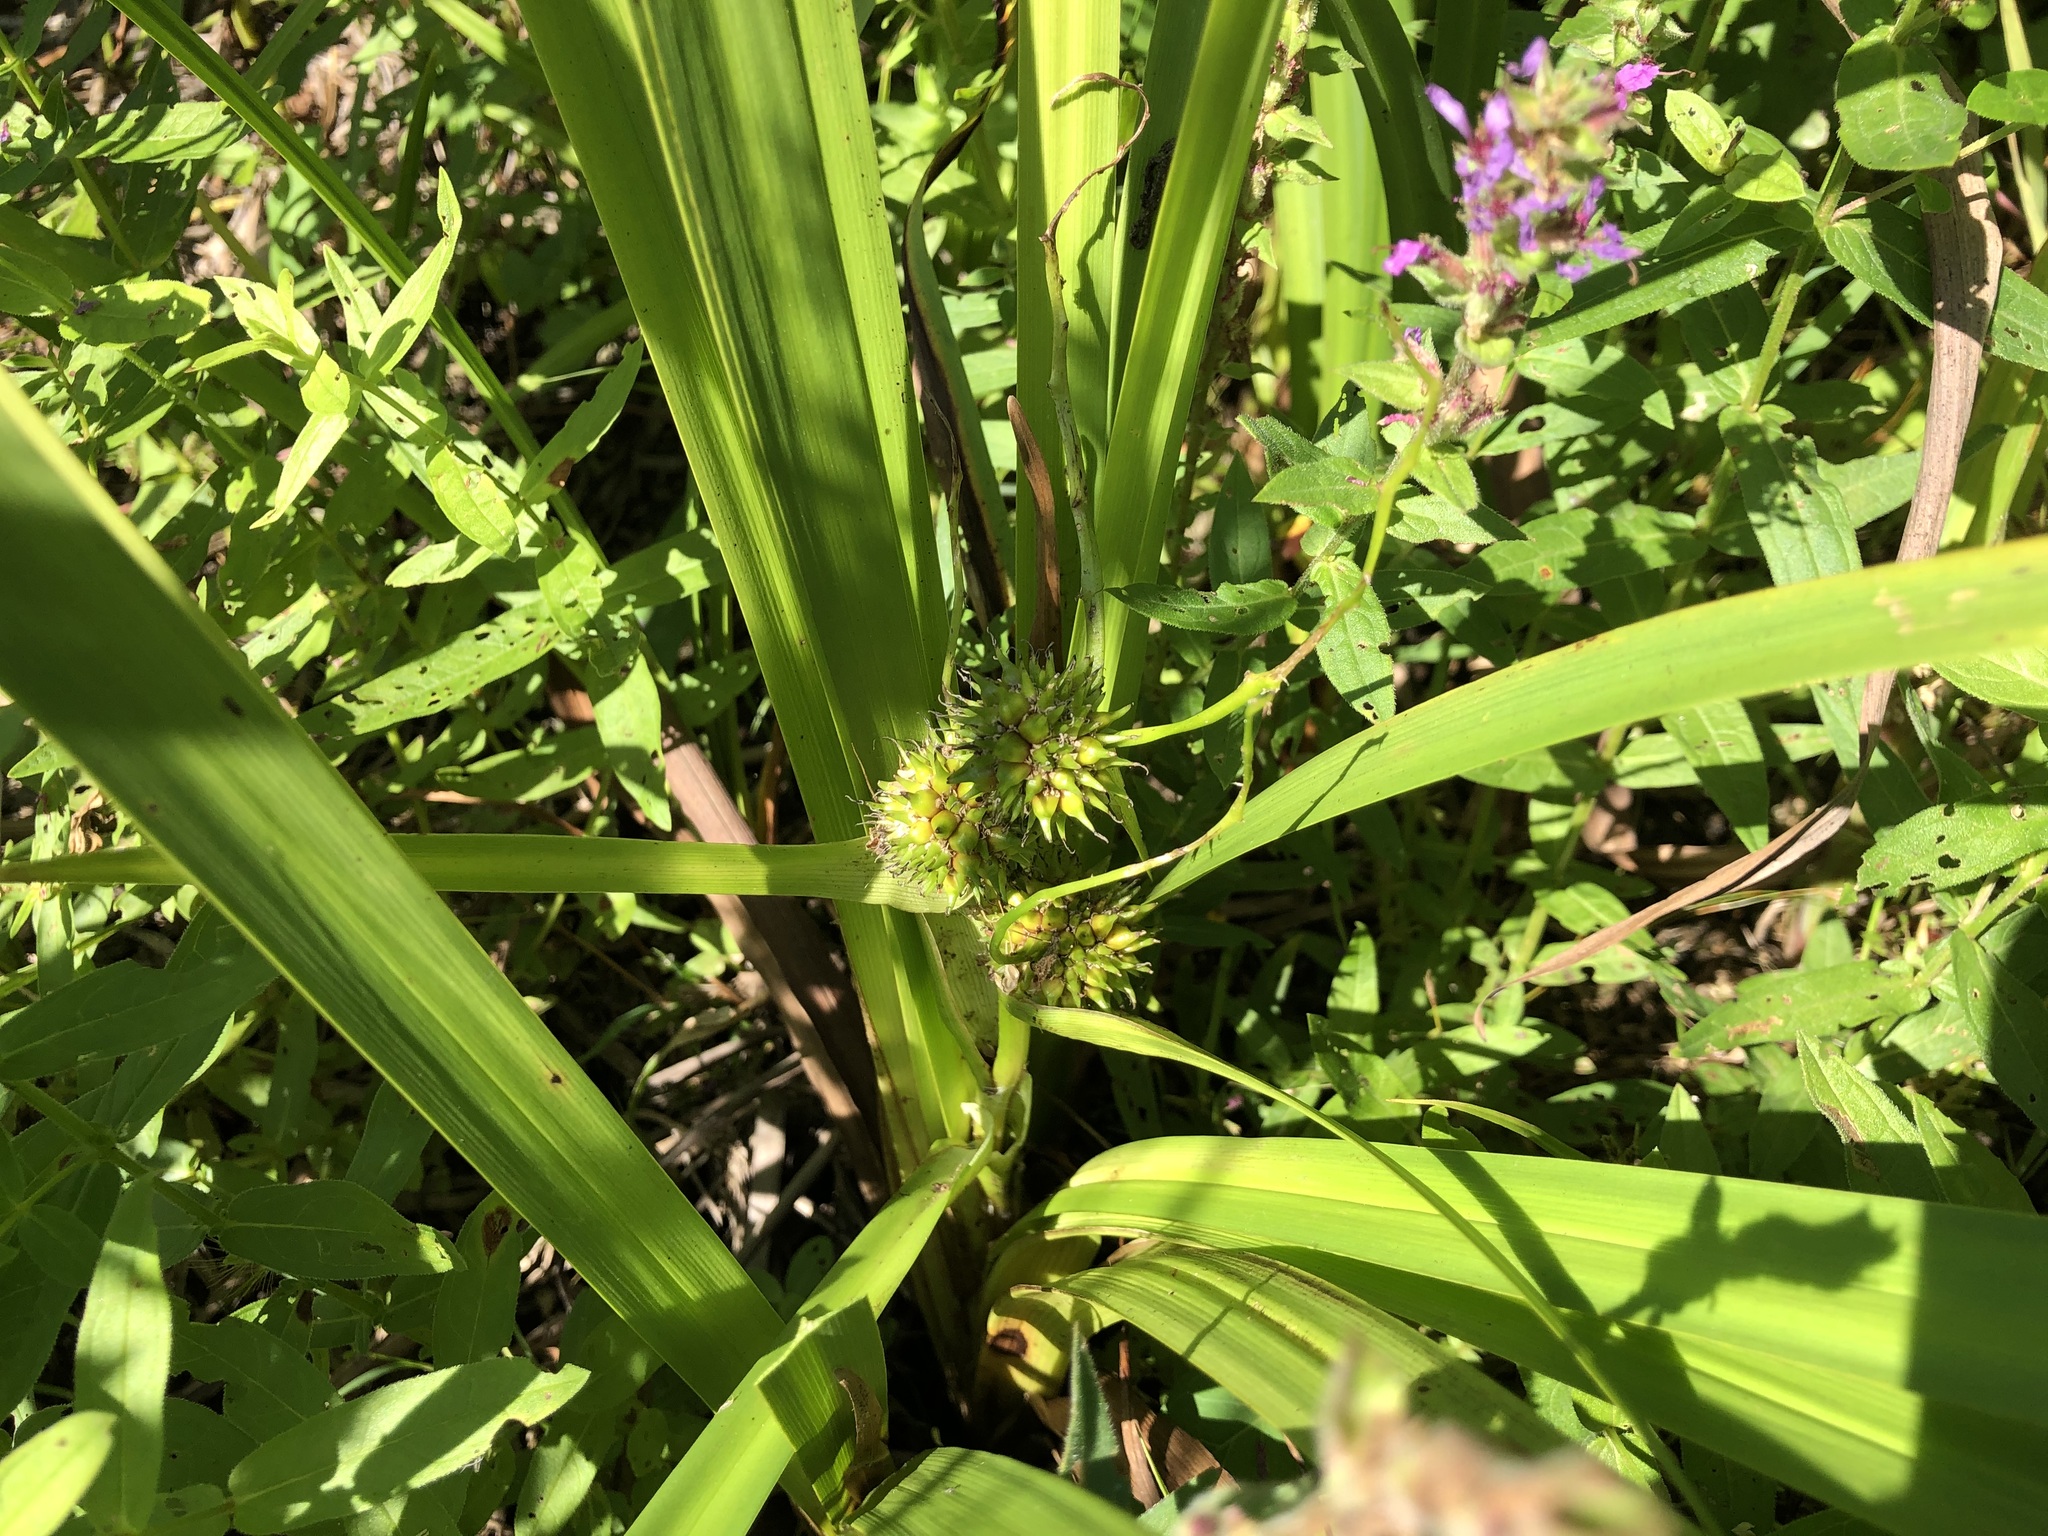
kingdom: Plantae
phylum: Tracheophyta
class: Liliopsida
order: Poales
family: Typhaceae
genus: Sparganium
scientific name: Sparganium erectum
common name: Branched bur-reed
